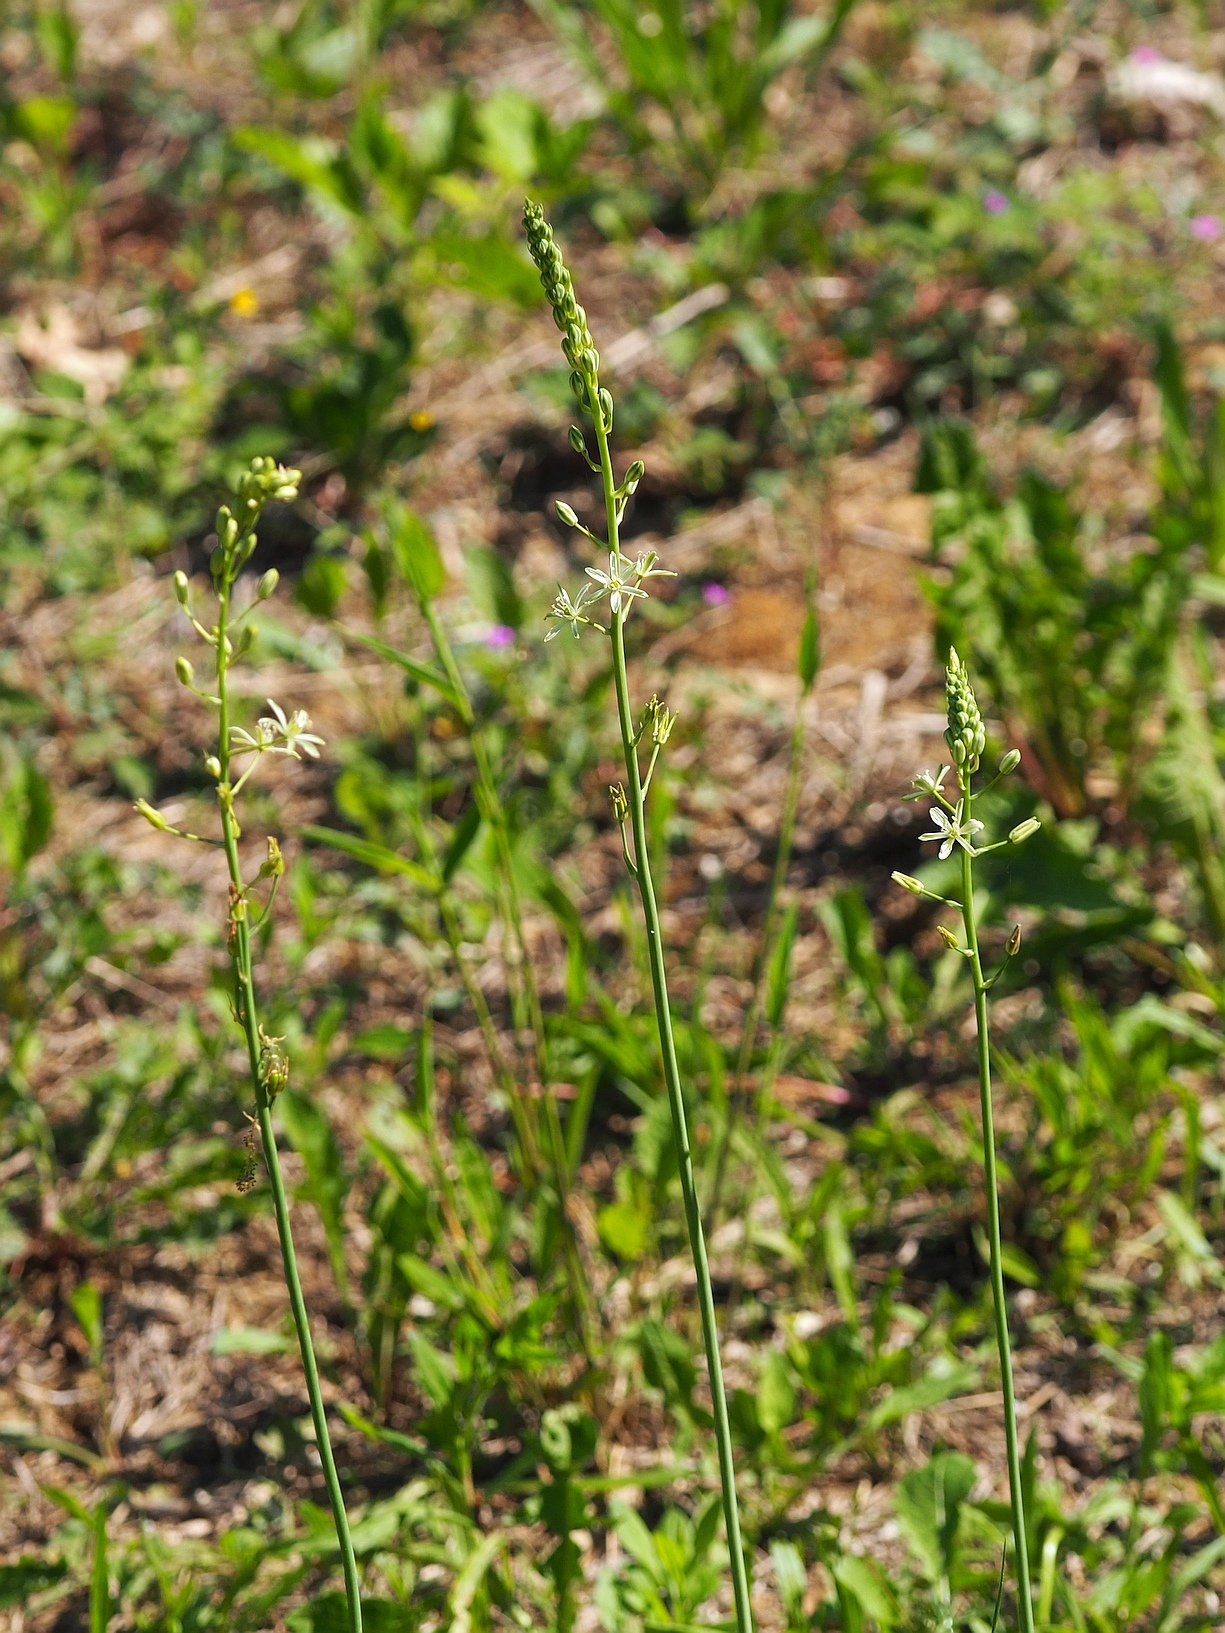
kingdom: Plantae
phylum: Tracheophyta
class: Liliopsida
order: Asparagales
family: Asparagaceae
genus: Ornithogalum
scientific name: Ornithogalum pyrenaicum
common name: Spiked star-of-bethlehem
